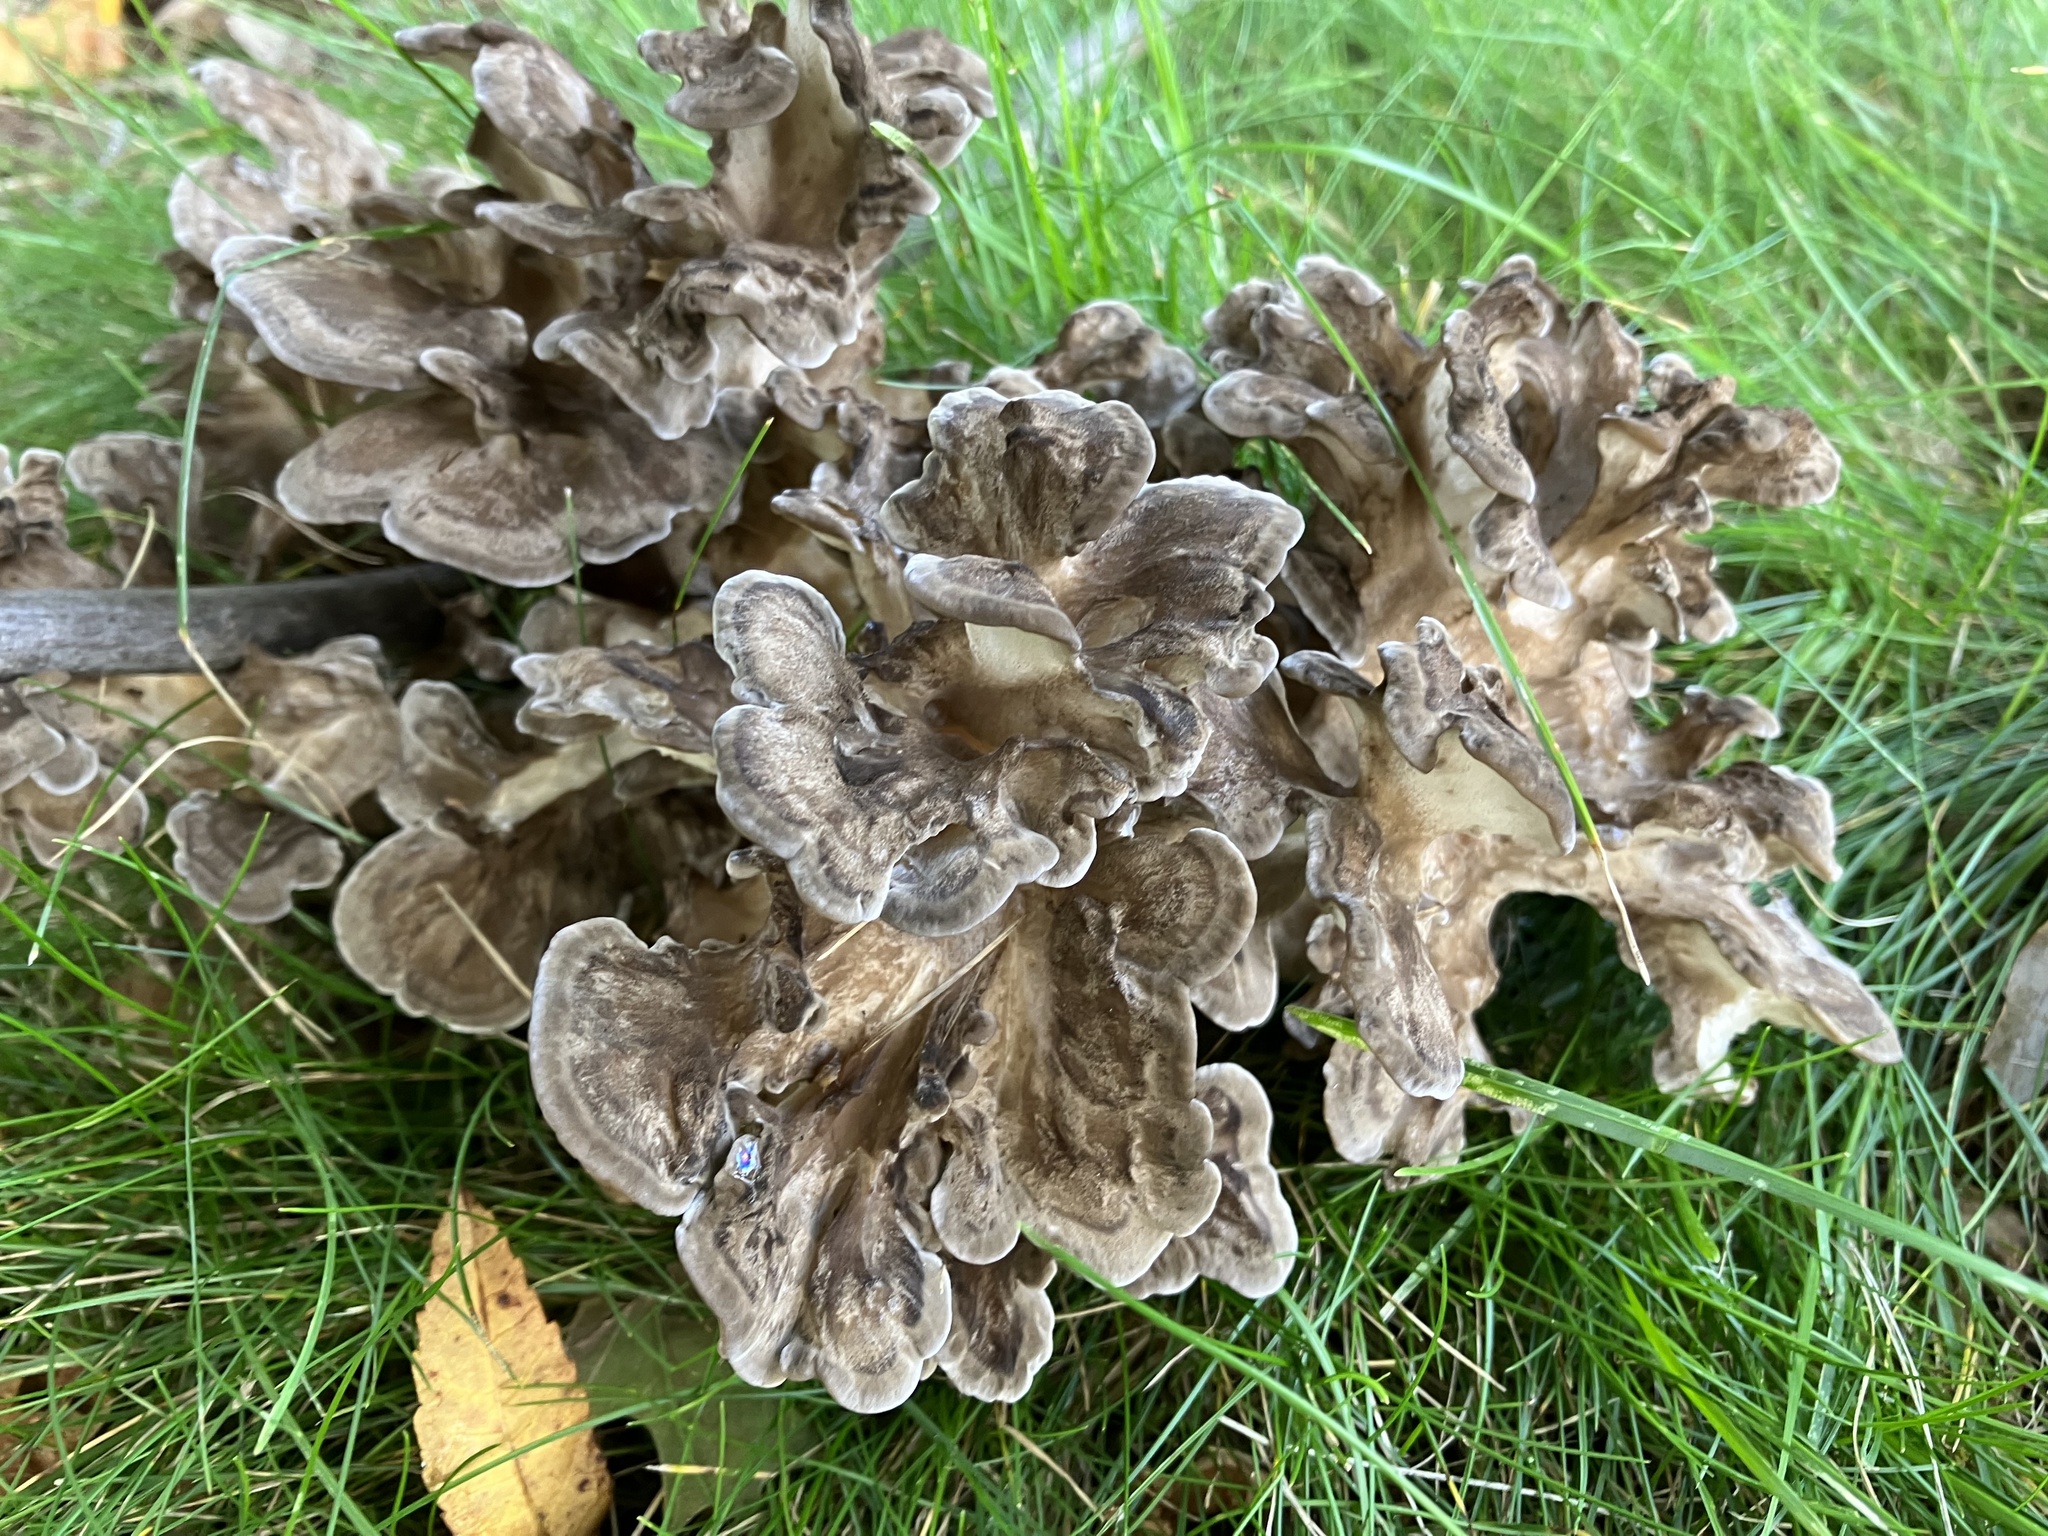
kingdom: Fungi
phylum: Basidiomycota
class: Agaricomycetes
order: Polyporales
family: Grifolaceae
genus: Grifola
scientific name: Grifola frondosa
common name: Hen of the woods
